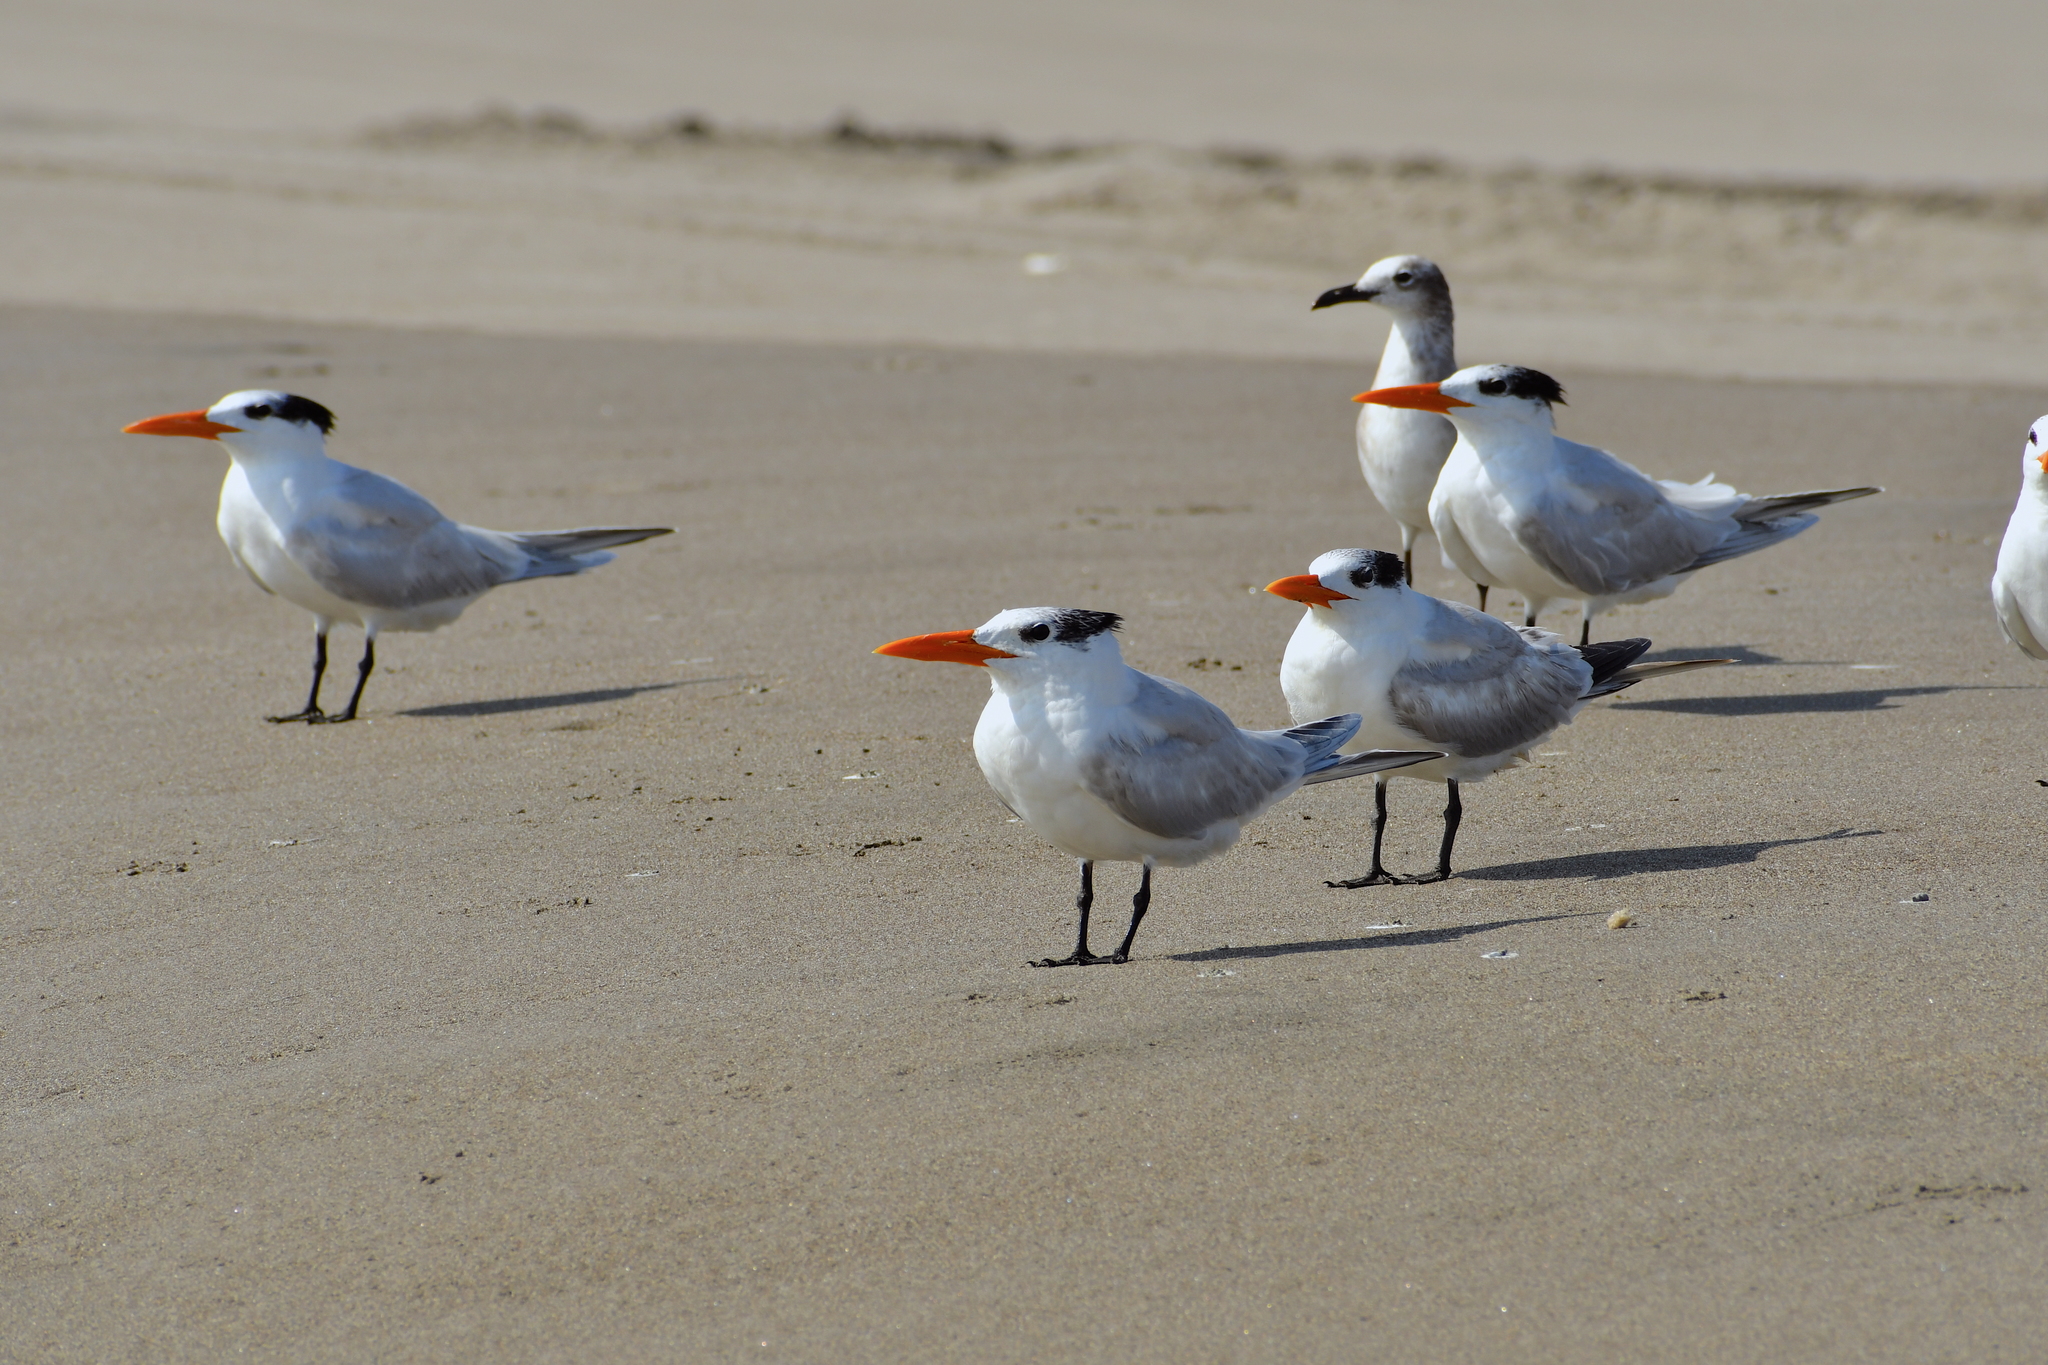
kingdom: Animalia
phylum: Chordata
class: Aves
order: Charadriiformes
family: Laridae
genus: Thalasseus
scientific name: Thalasseus maximus
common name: Royal tern
